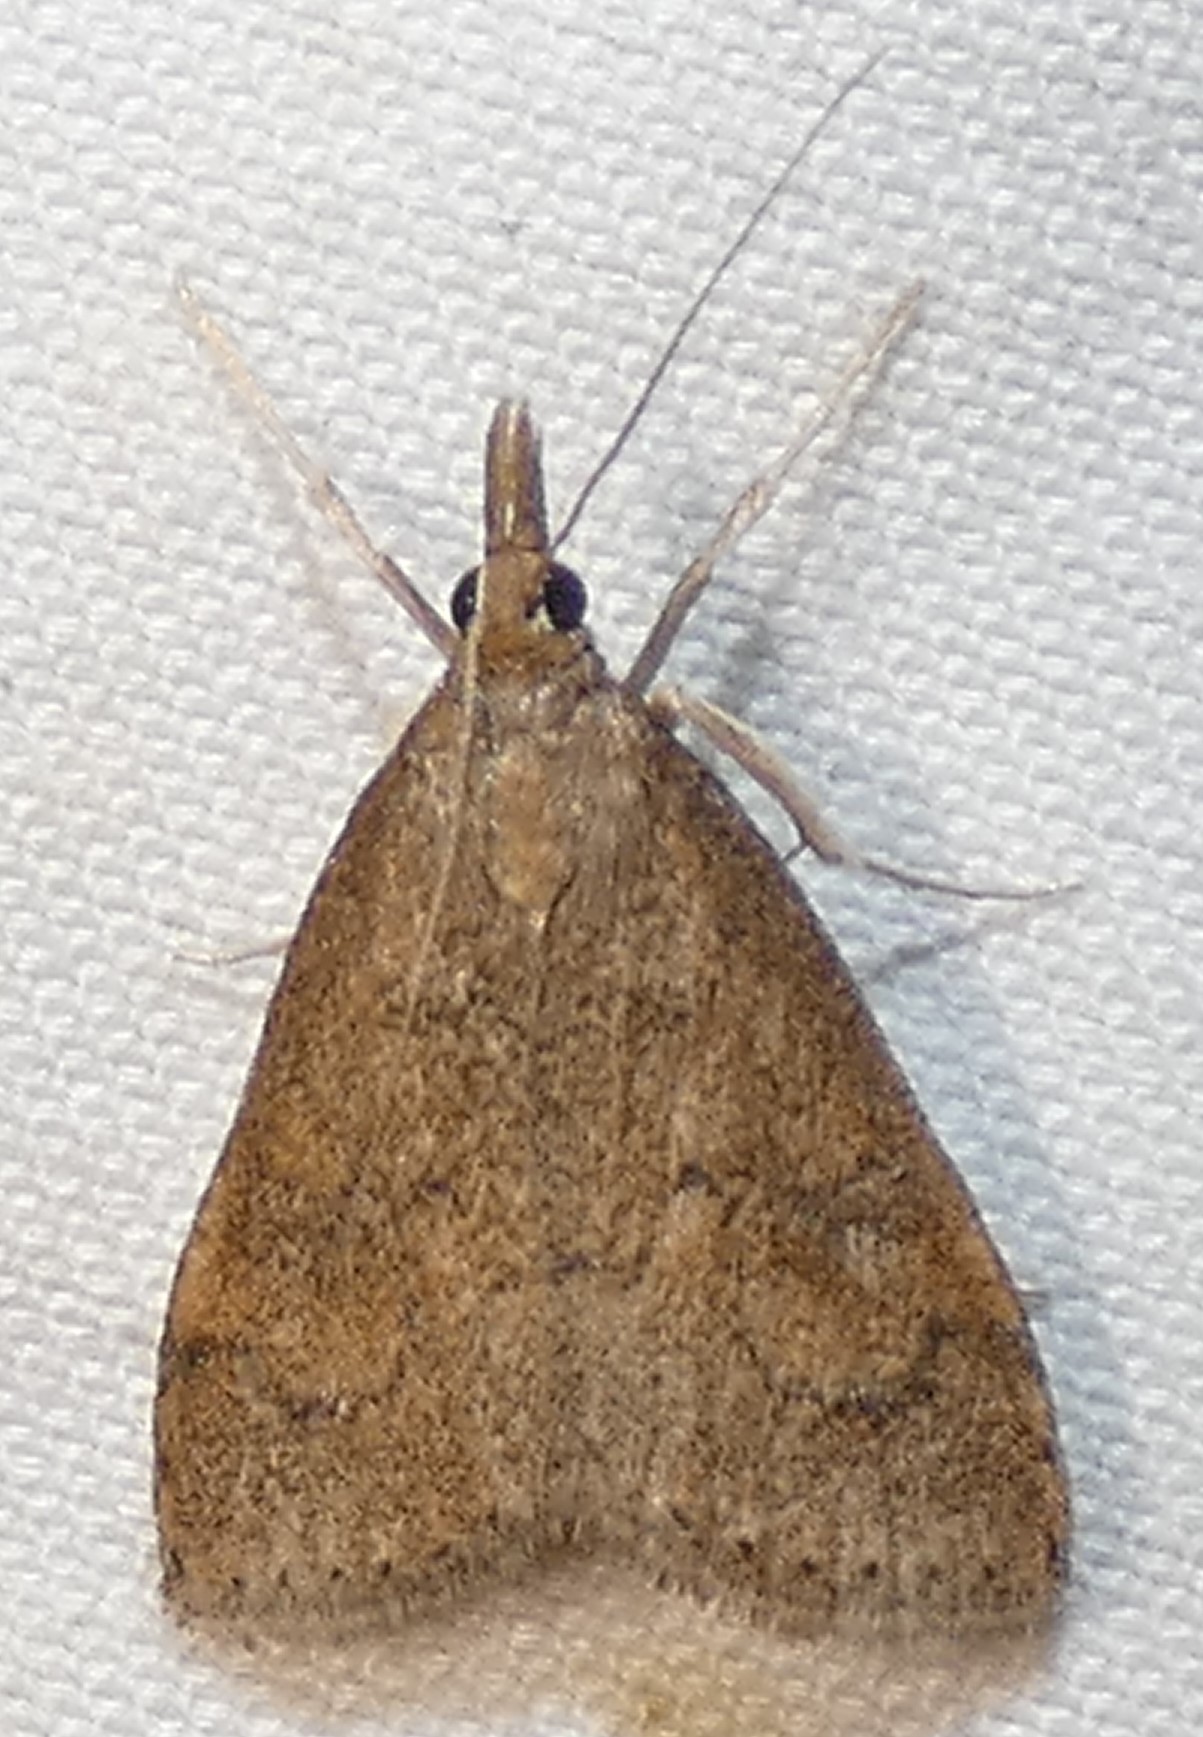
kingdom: Animalia
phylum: Arthropoda
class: Insecta
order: Lepidoptera
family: Crambidae
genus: Udea
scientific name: Udea rubigalis
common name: Celery leaftier moth
